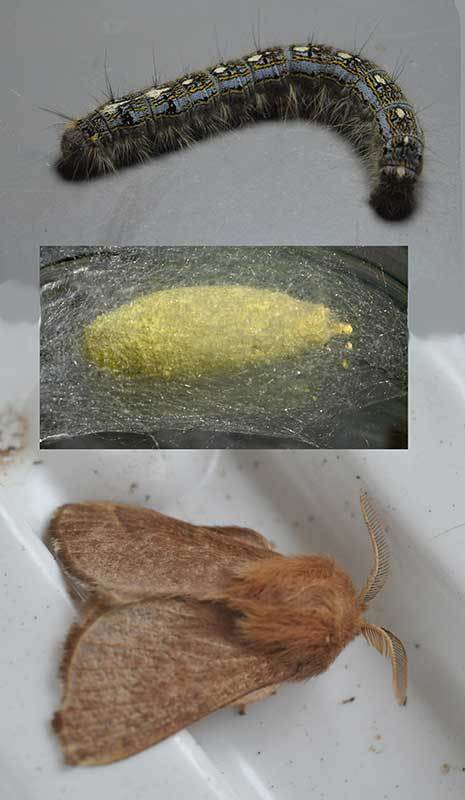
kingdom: Animalia
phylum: Arthropoda
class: Insecta
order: Lepidoptera
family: Lasiocampidae
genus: Malacosoma
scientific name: Malacosoma disstria
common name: Forest tent caterpillar
